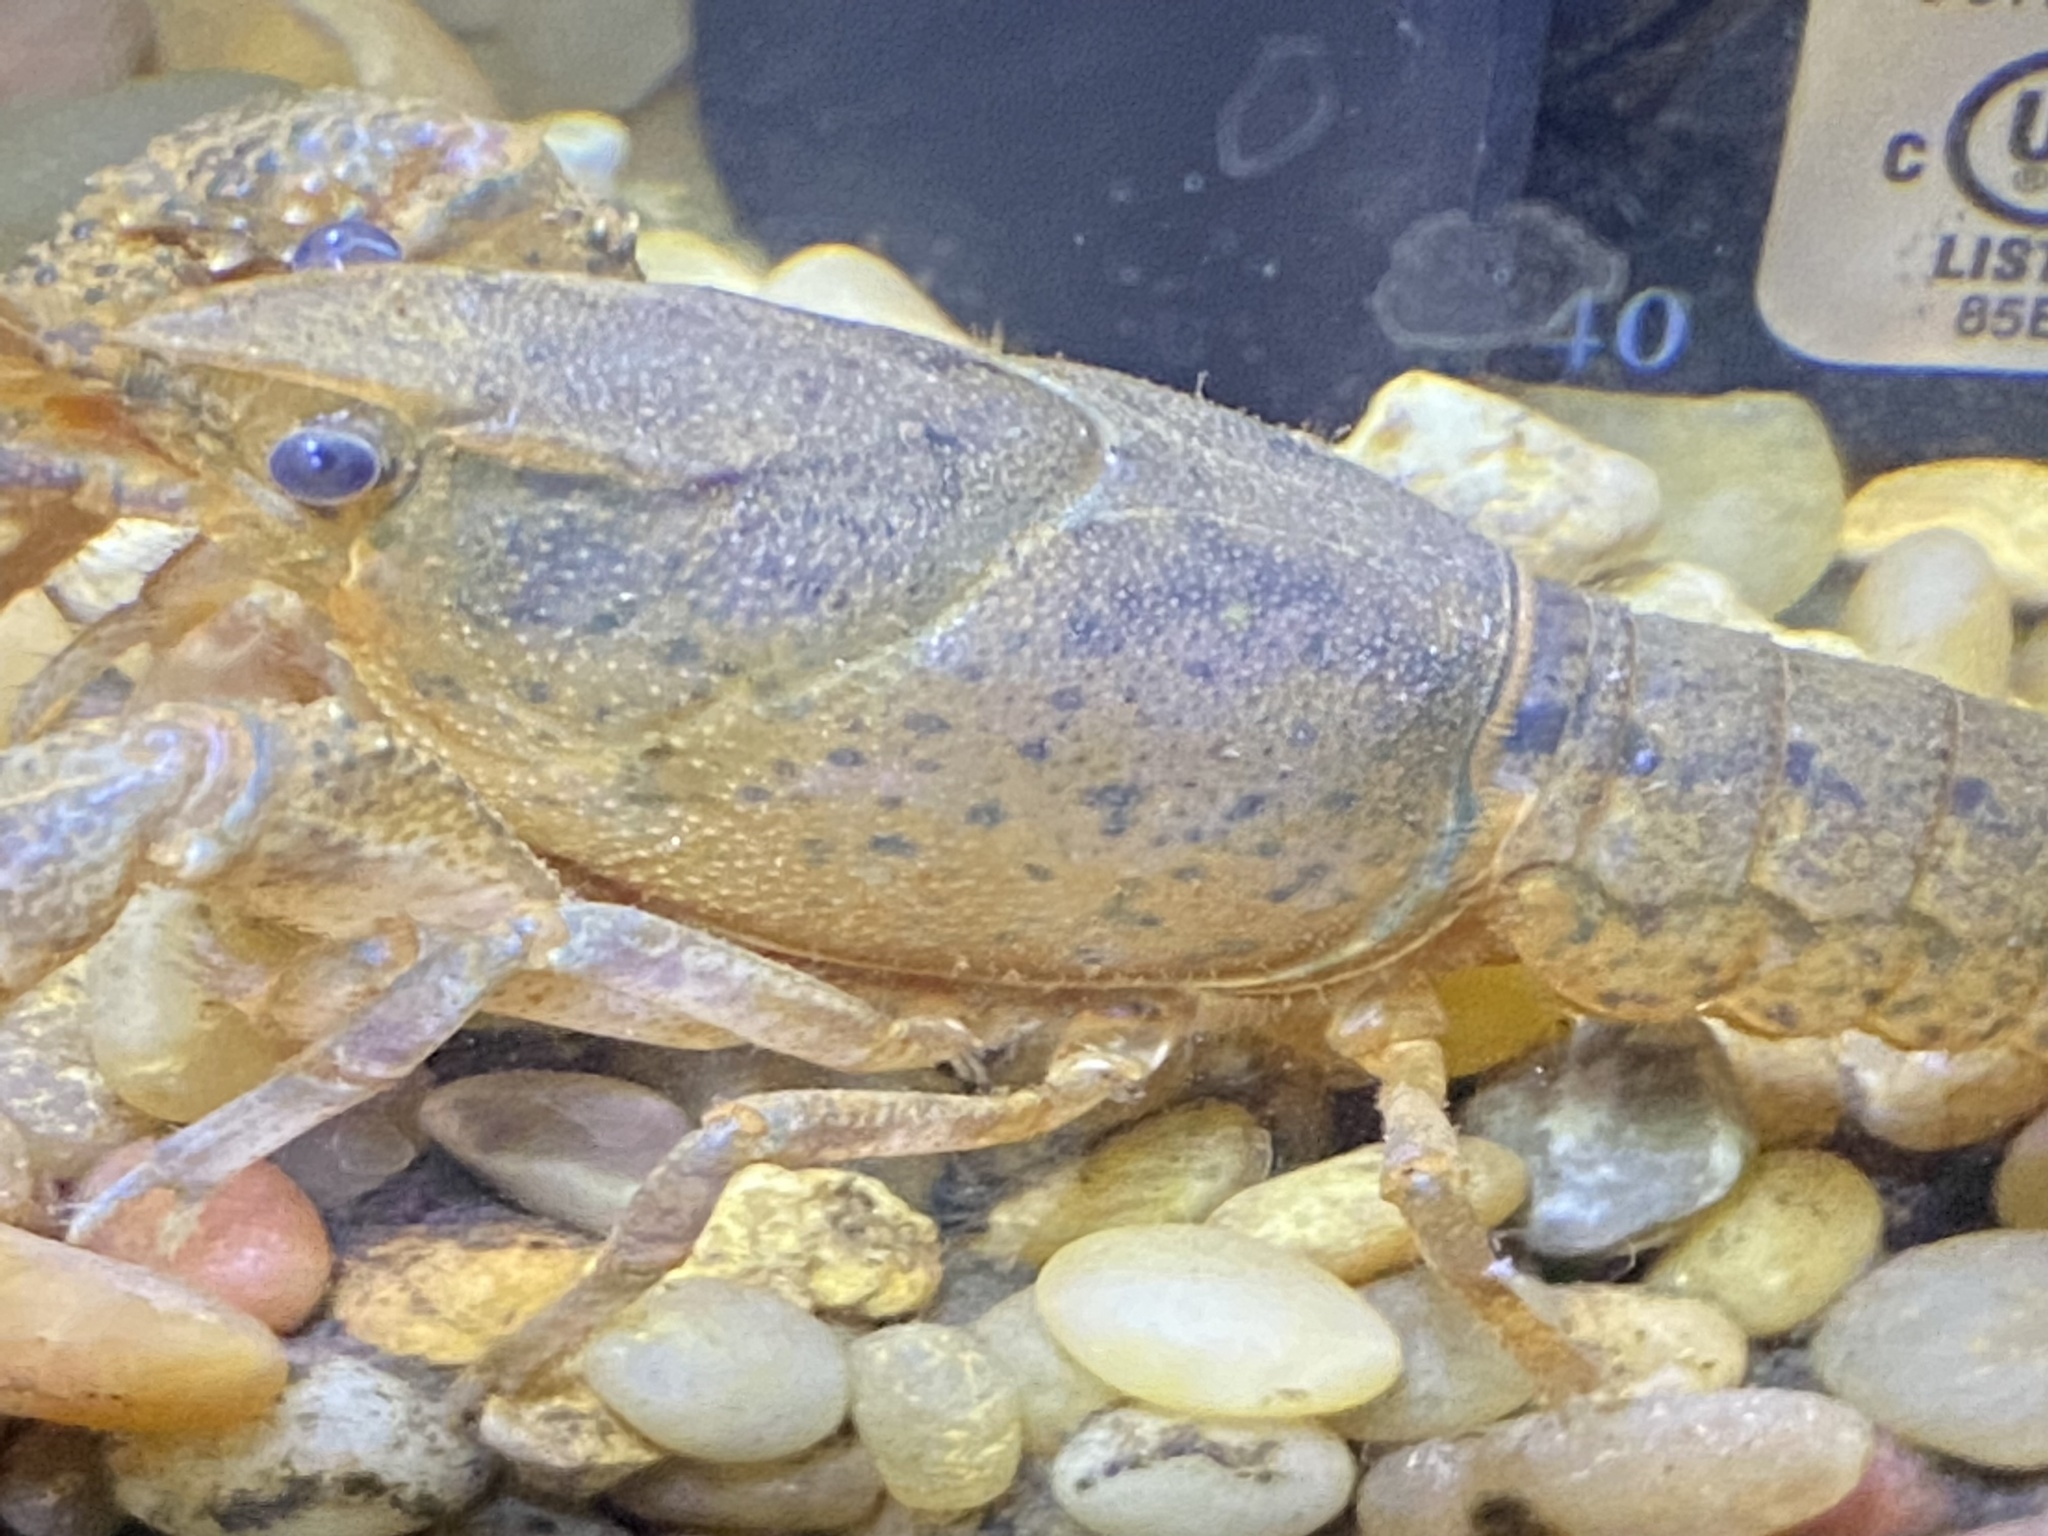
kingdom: Animalia
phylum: Arthropoda
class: Malacostraca
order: Decapoda
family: Cambaridae
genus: Procambarus
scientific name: Procambarus kensleyi
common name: Free state chimney crawfish
